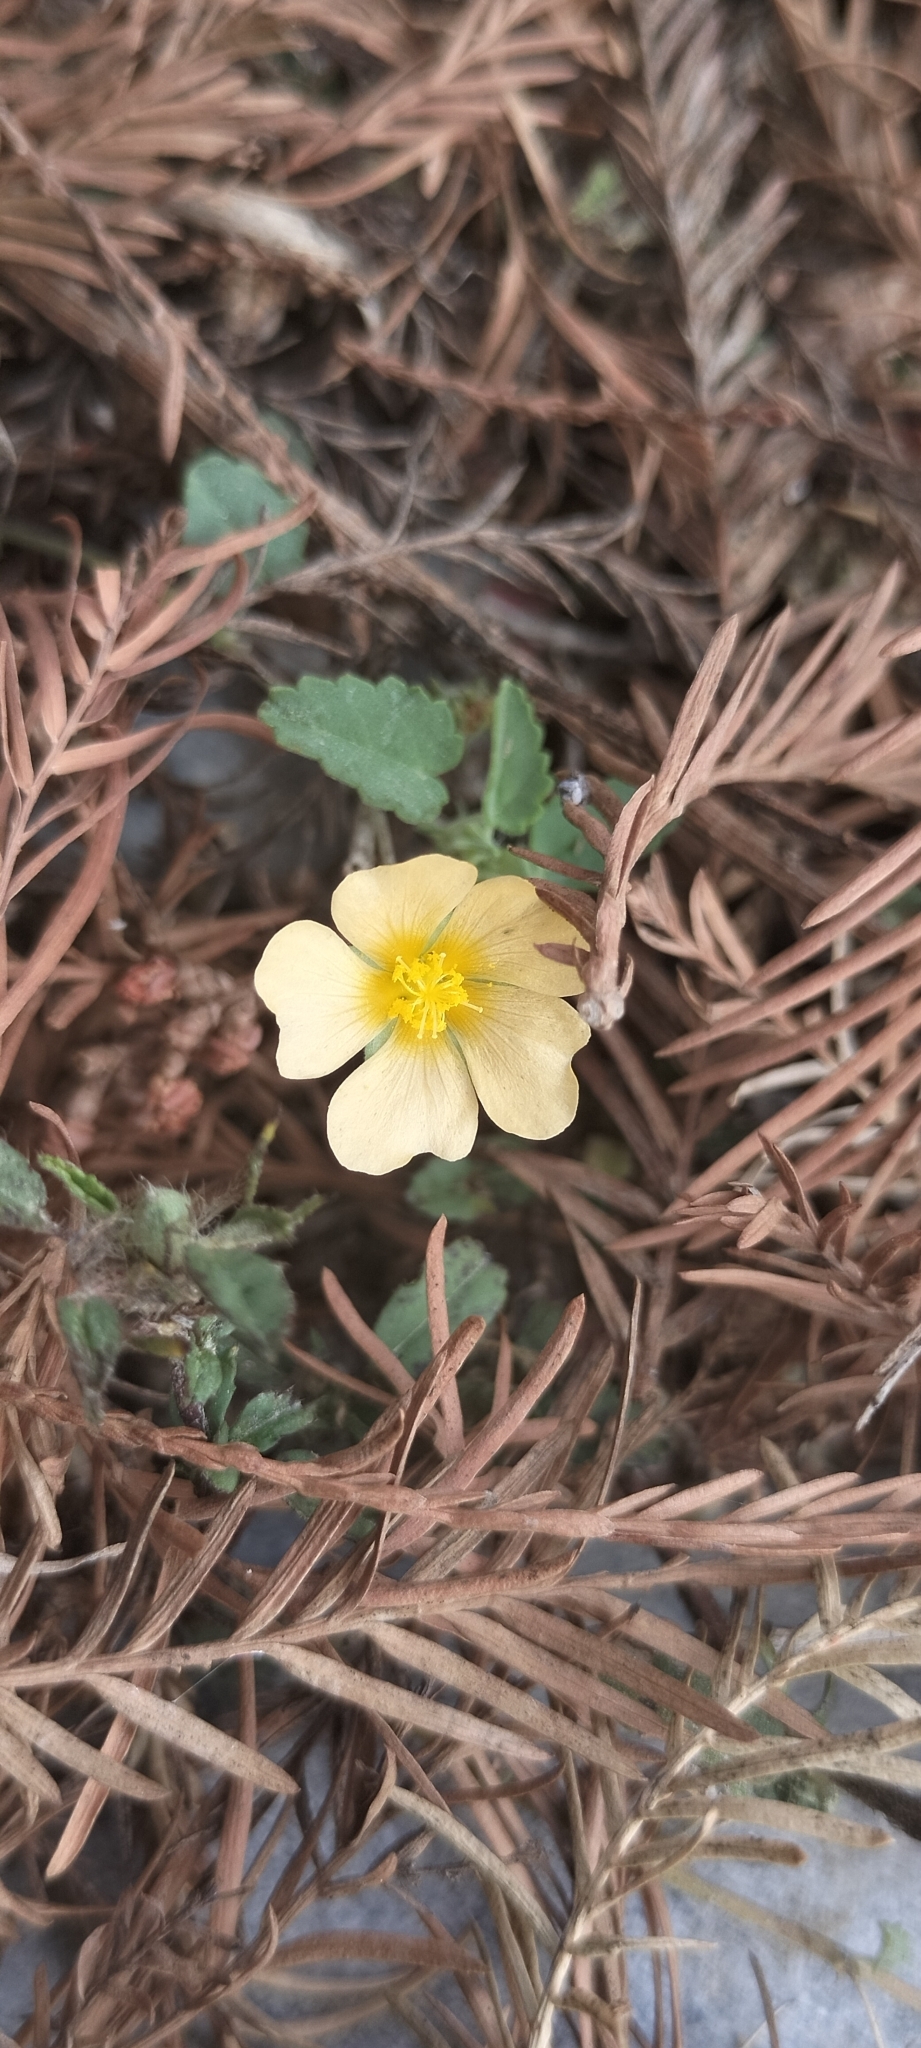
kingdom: Plantae
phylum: Tracheophyta
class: Magnoliopsida
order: Malvales
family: Malvaceae
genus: Sida
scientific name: Sida abutilifolia
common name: Spreading fanpetals
